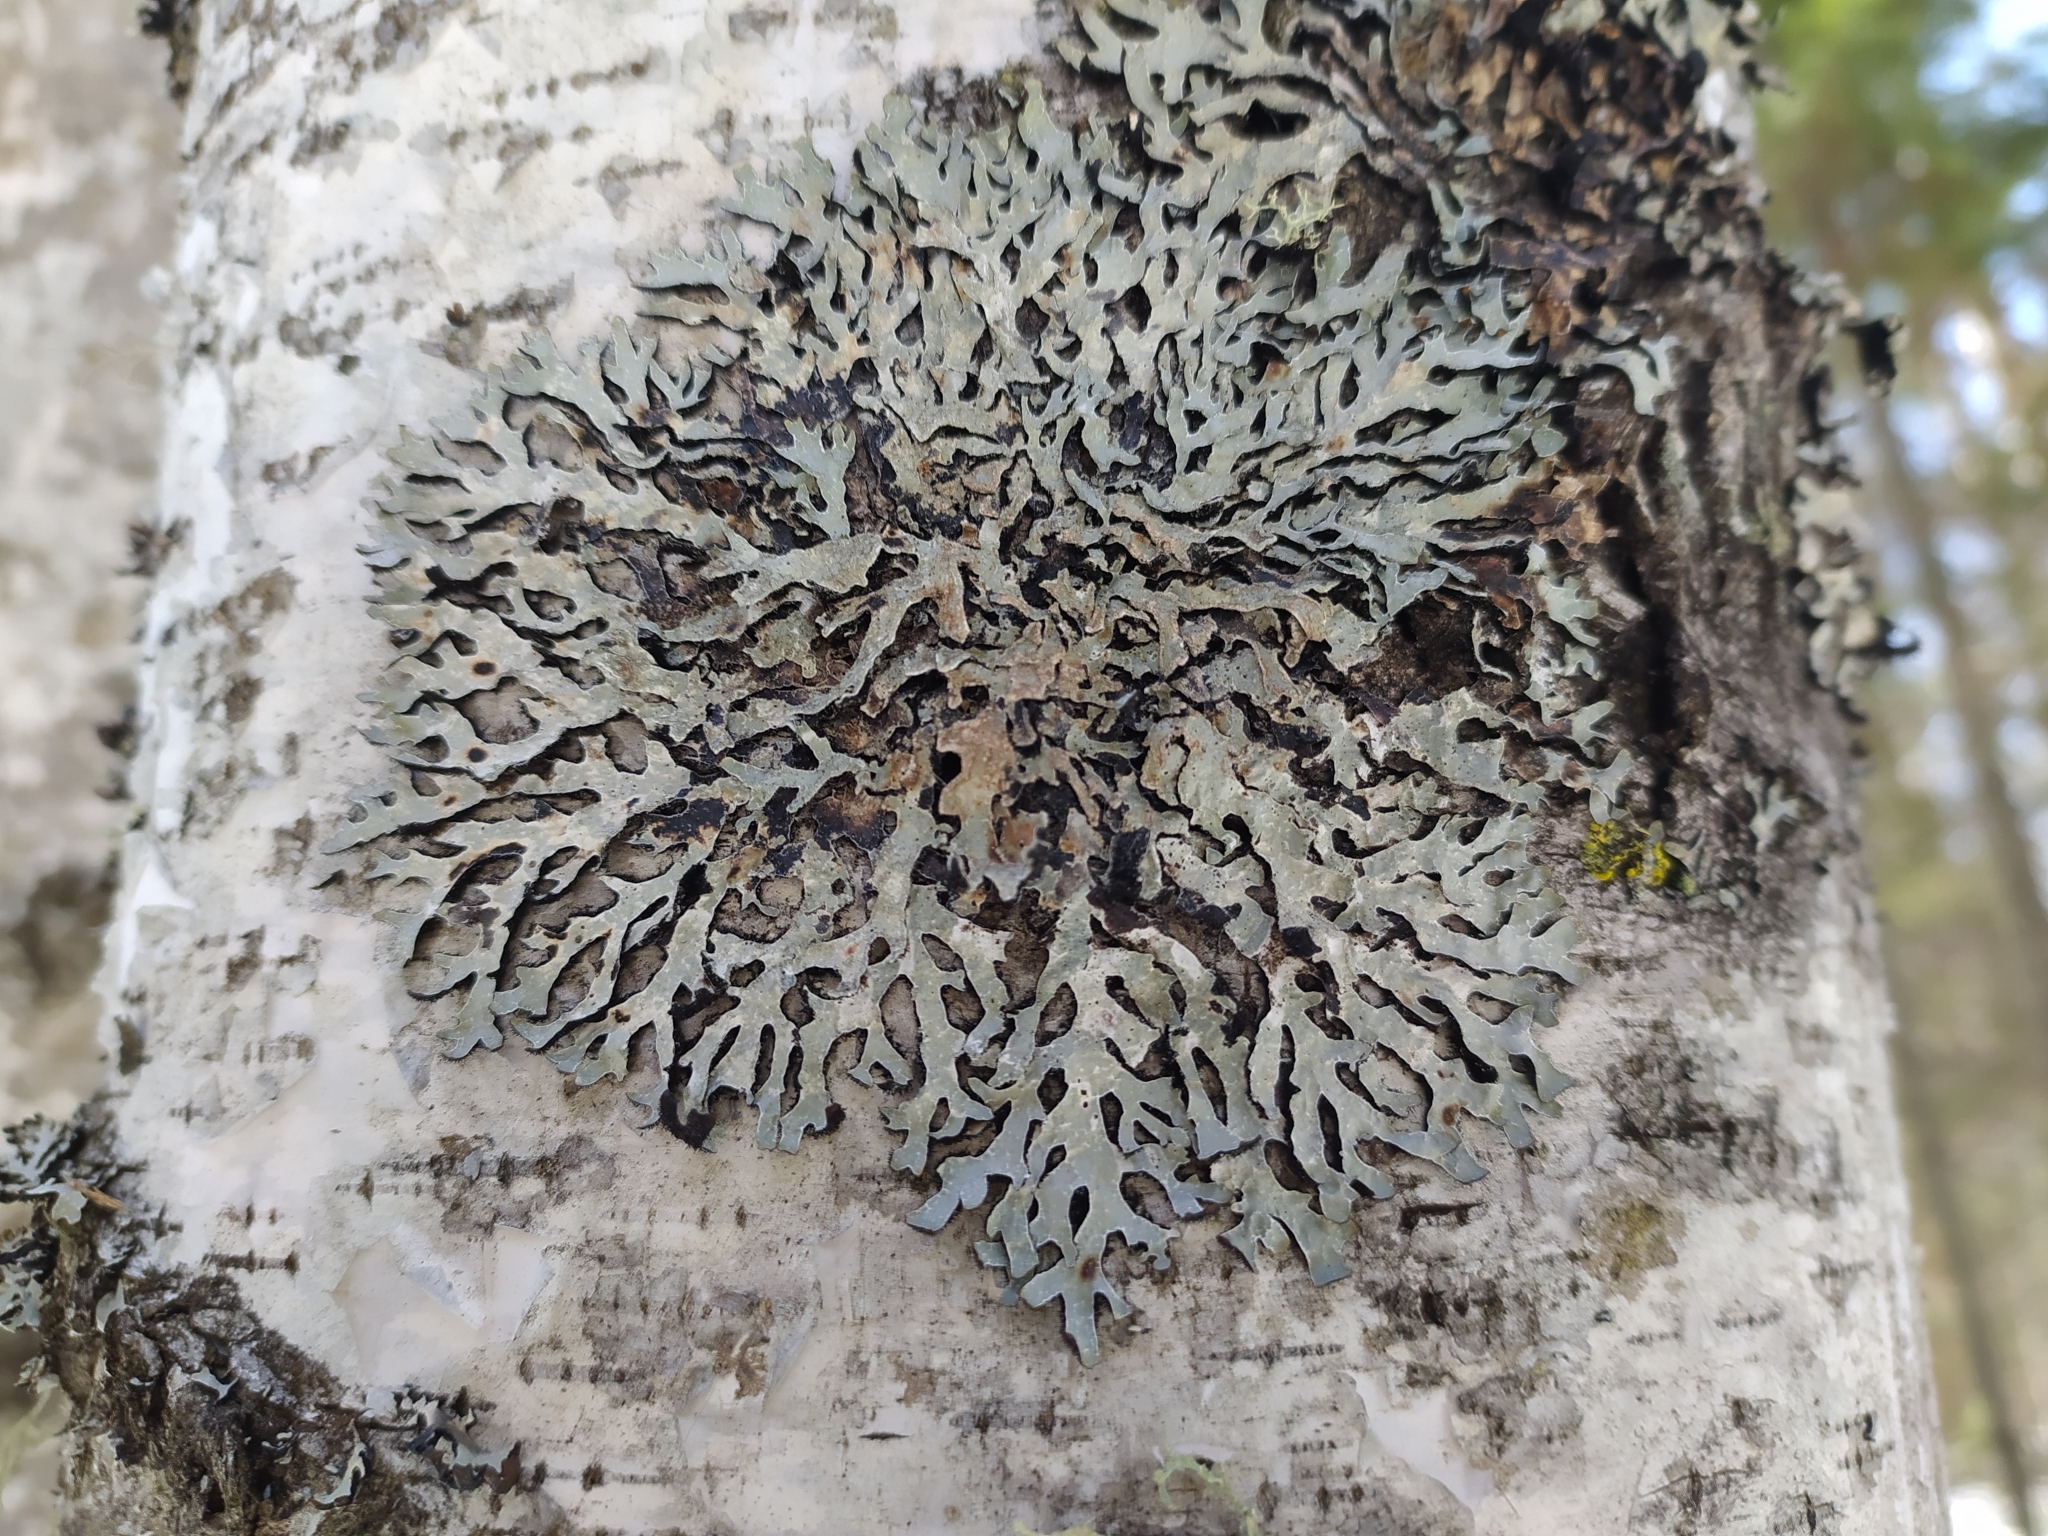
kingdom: Fungi
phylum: Ascomycota
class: Lecanoromycetes
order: Lecanorales
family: Parmeliaceae
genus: Parmelia
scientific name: Parmelia sulcata
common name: Netted shield lichen
